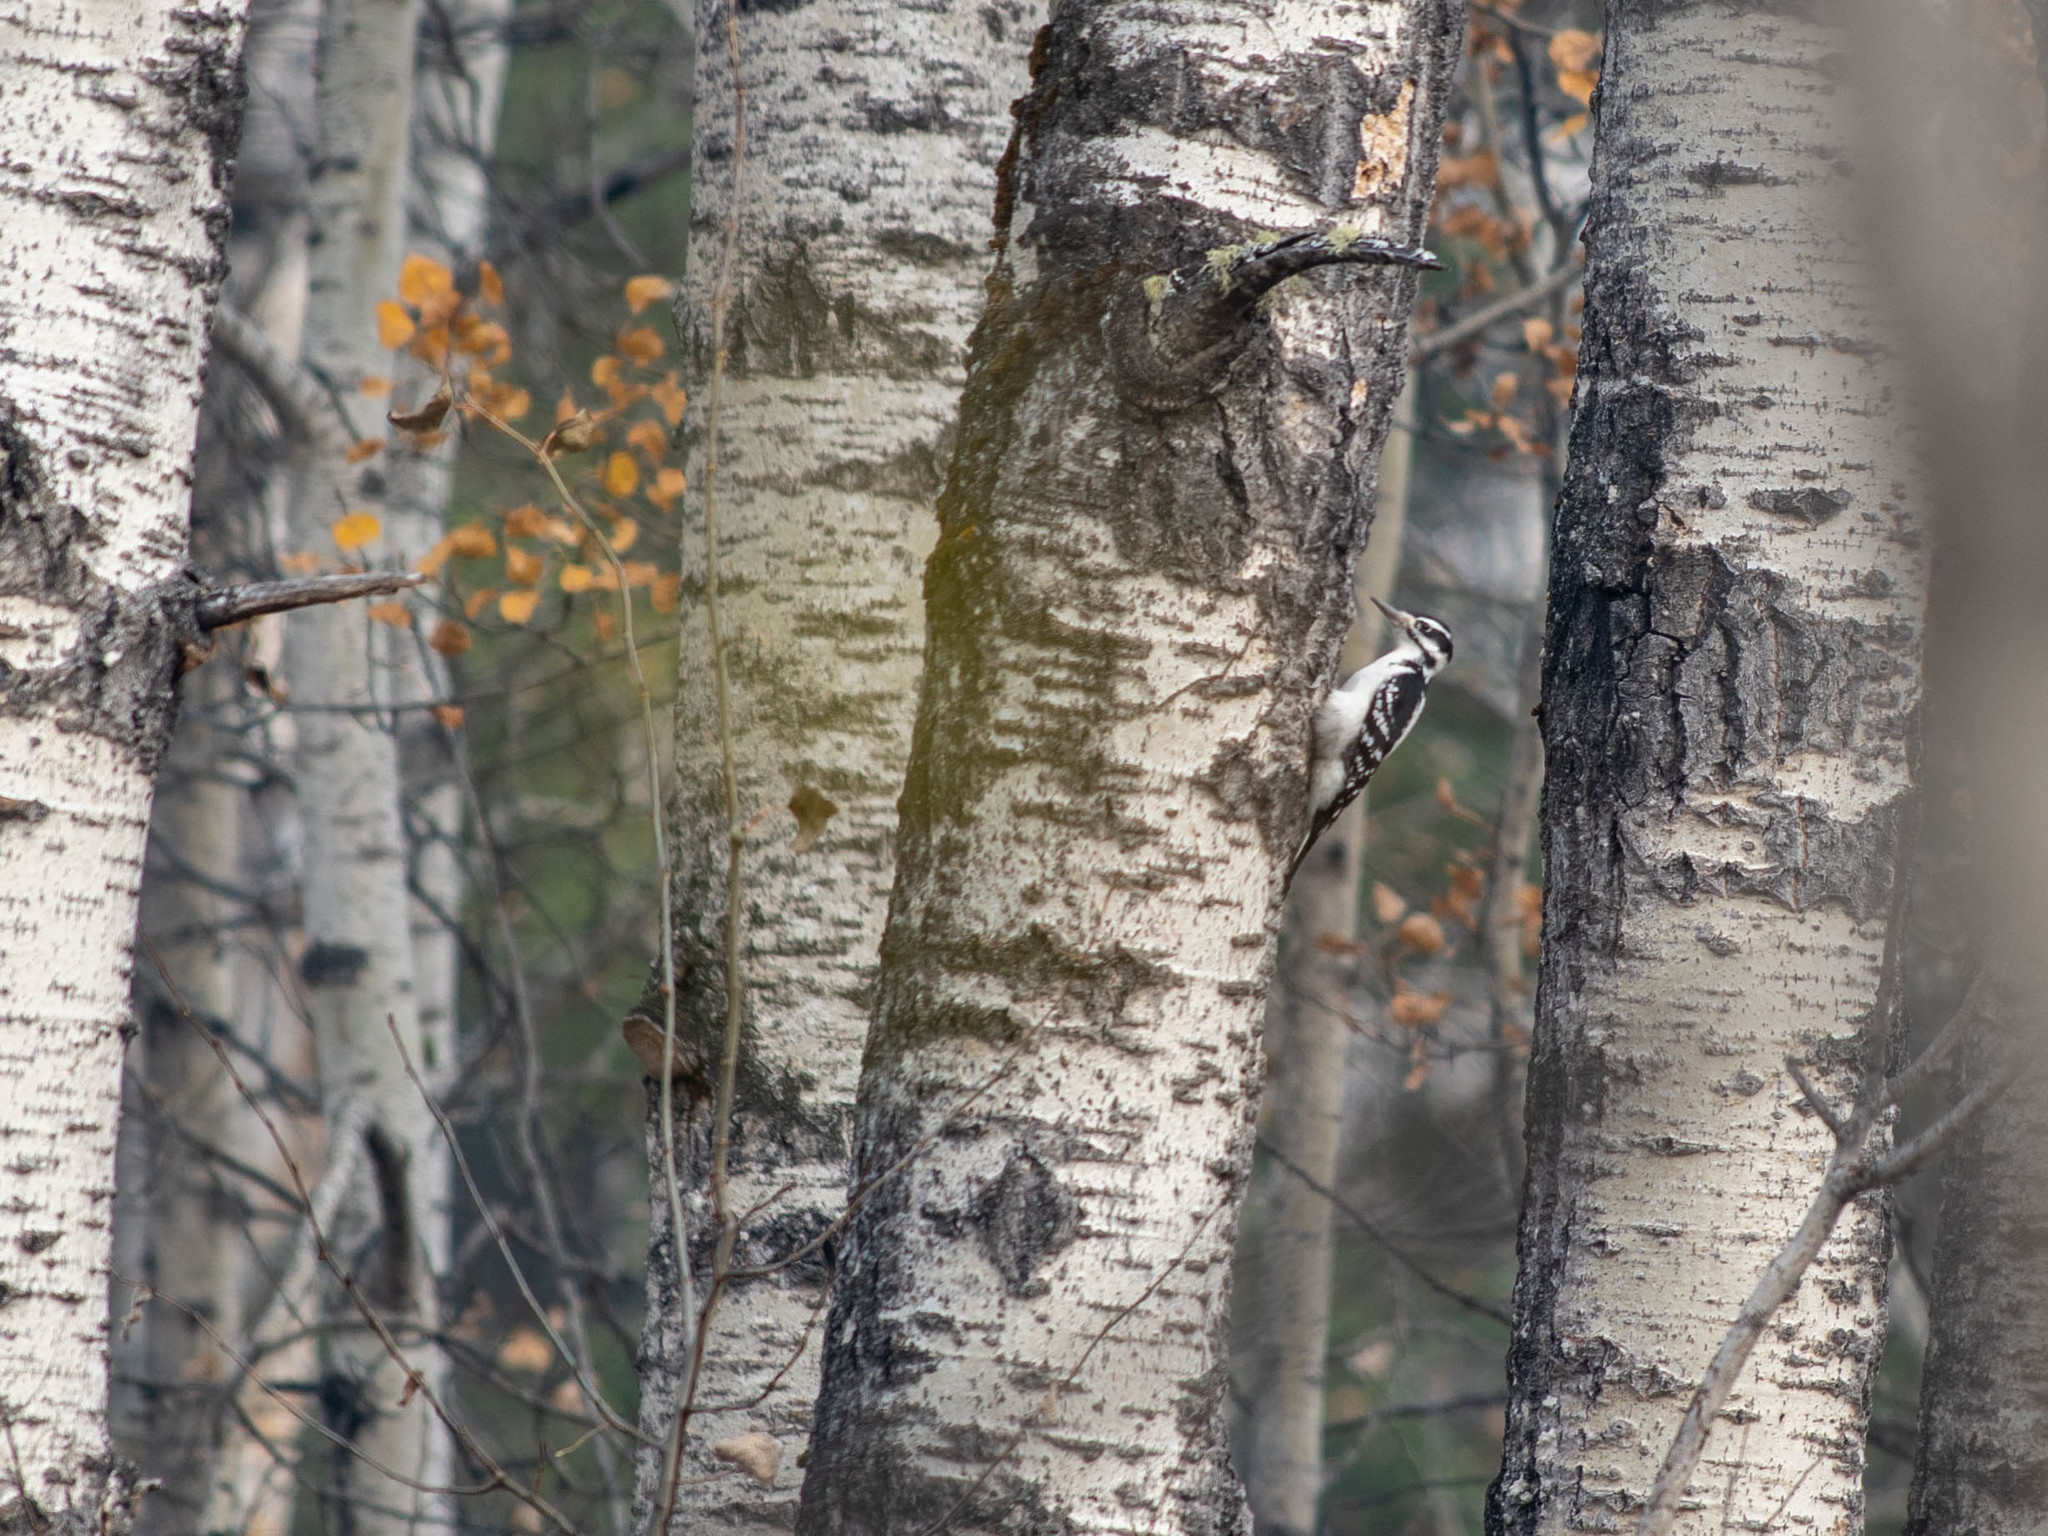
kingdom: Animalia
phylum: Chordata
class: Aves
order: Piciformes
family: Picidae
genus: Leuconotopicus
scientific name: Leuconotopicus villosus
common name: Hairy woodpecker
